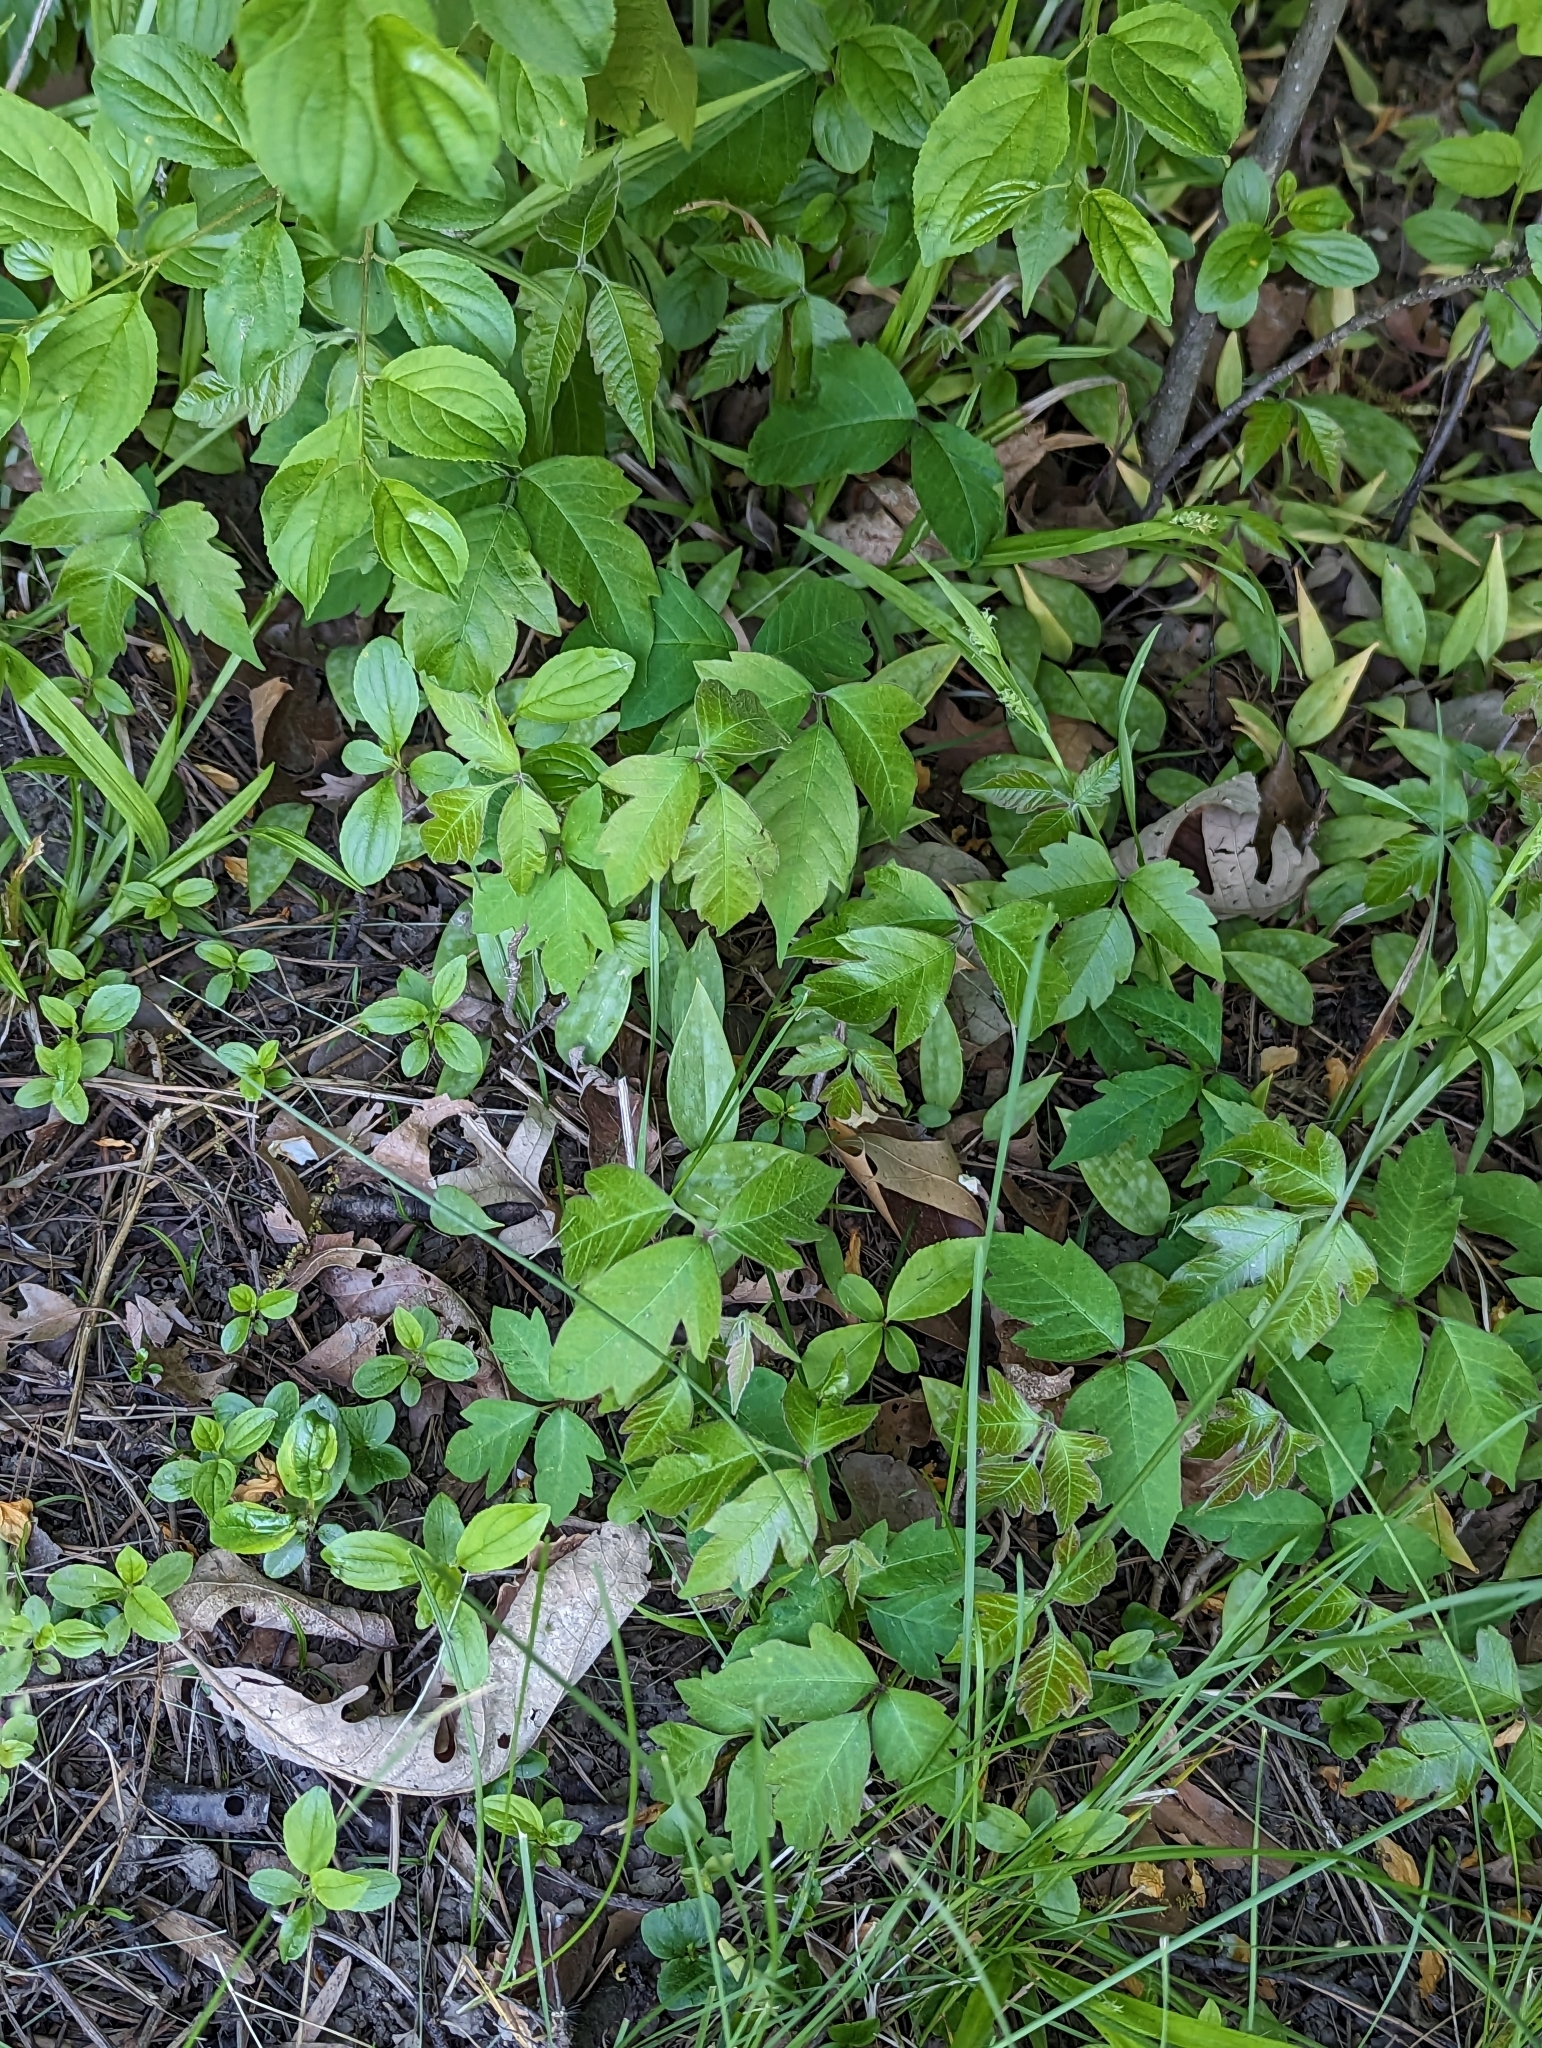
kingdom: Plantae
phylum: Tracheophyta
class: Magnoliopsida
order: Sapindales
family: Anacardiaceae
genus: Toxicodendron
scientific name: Toxicodendron radicans
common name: Poison ivy
